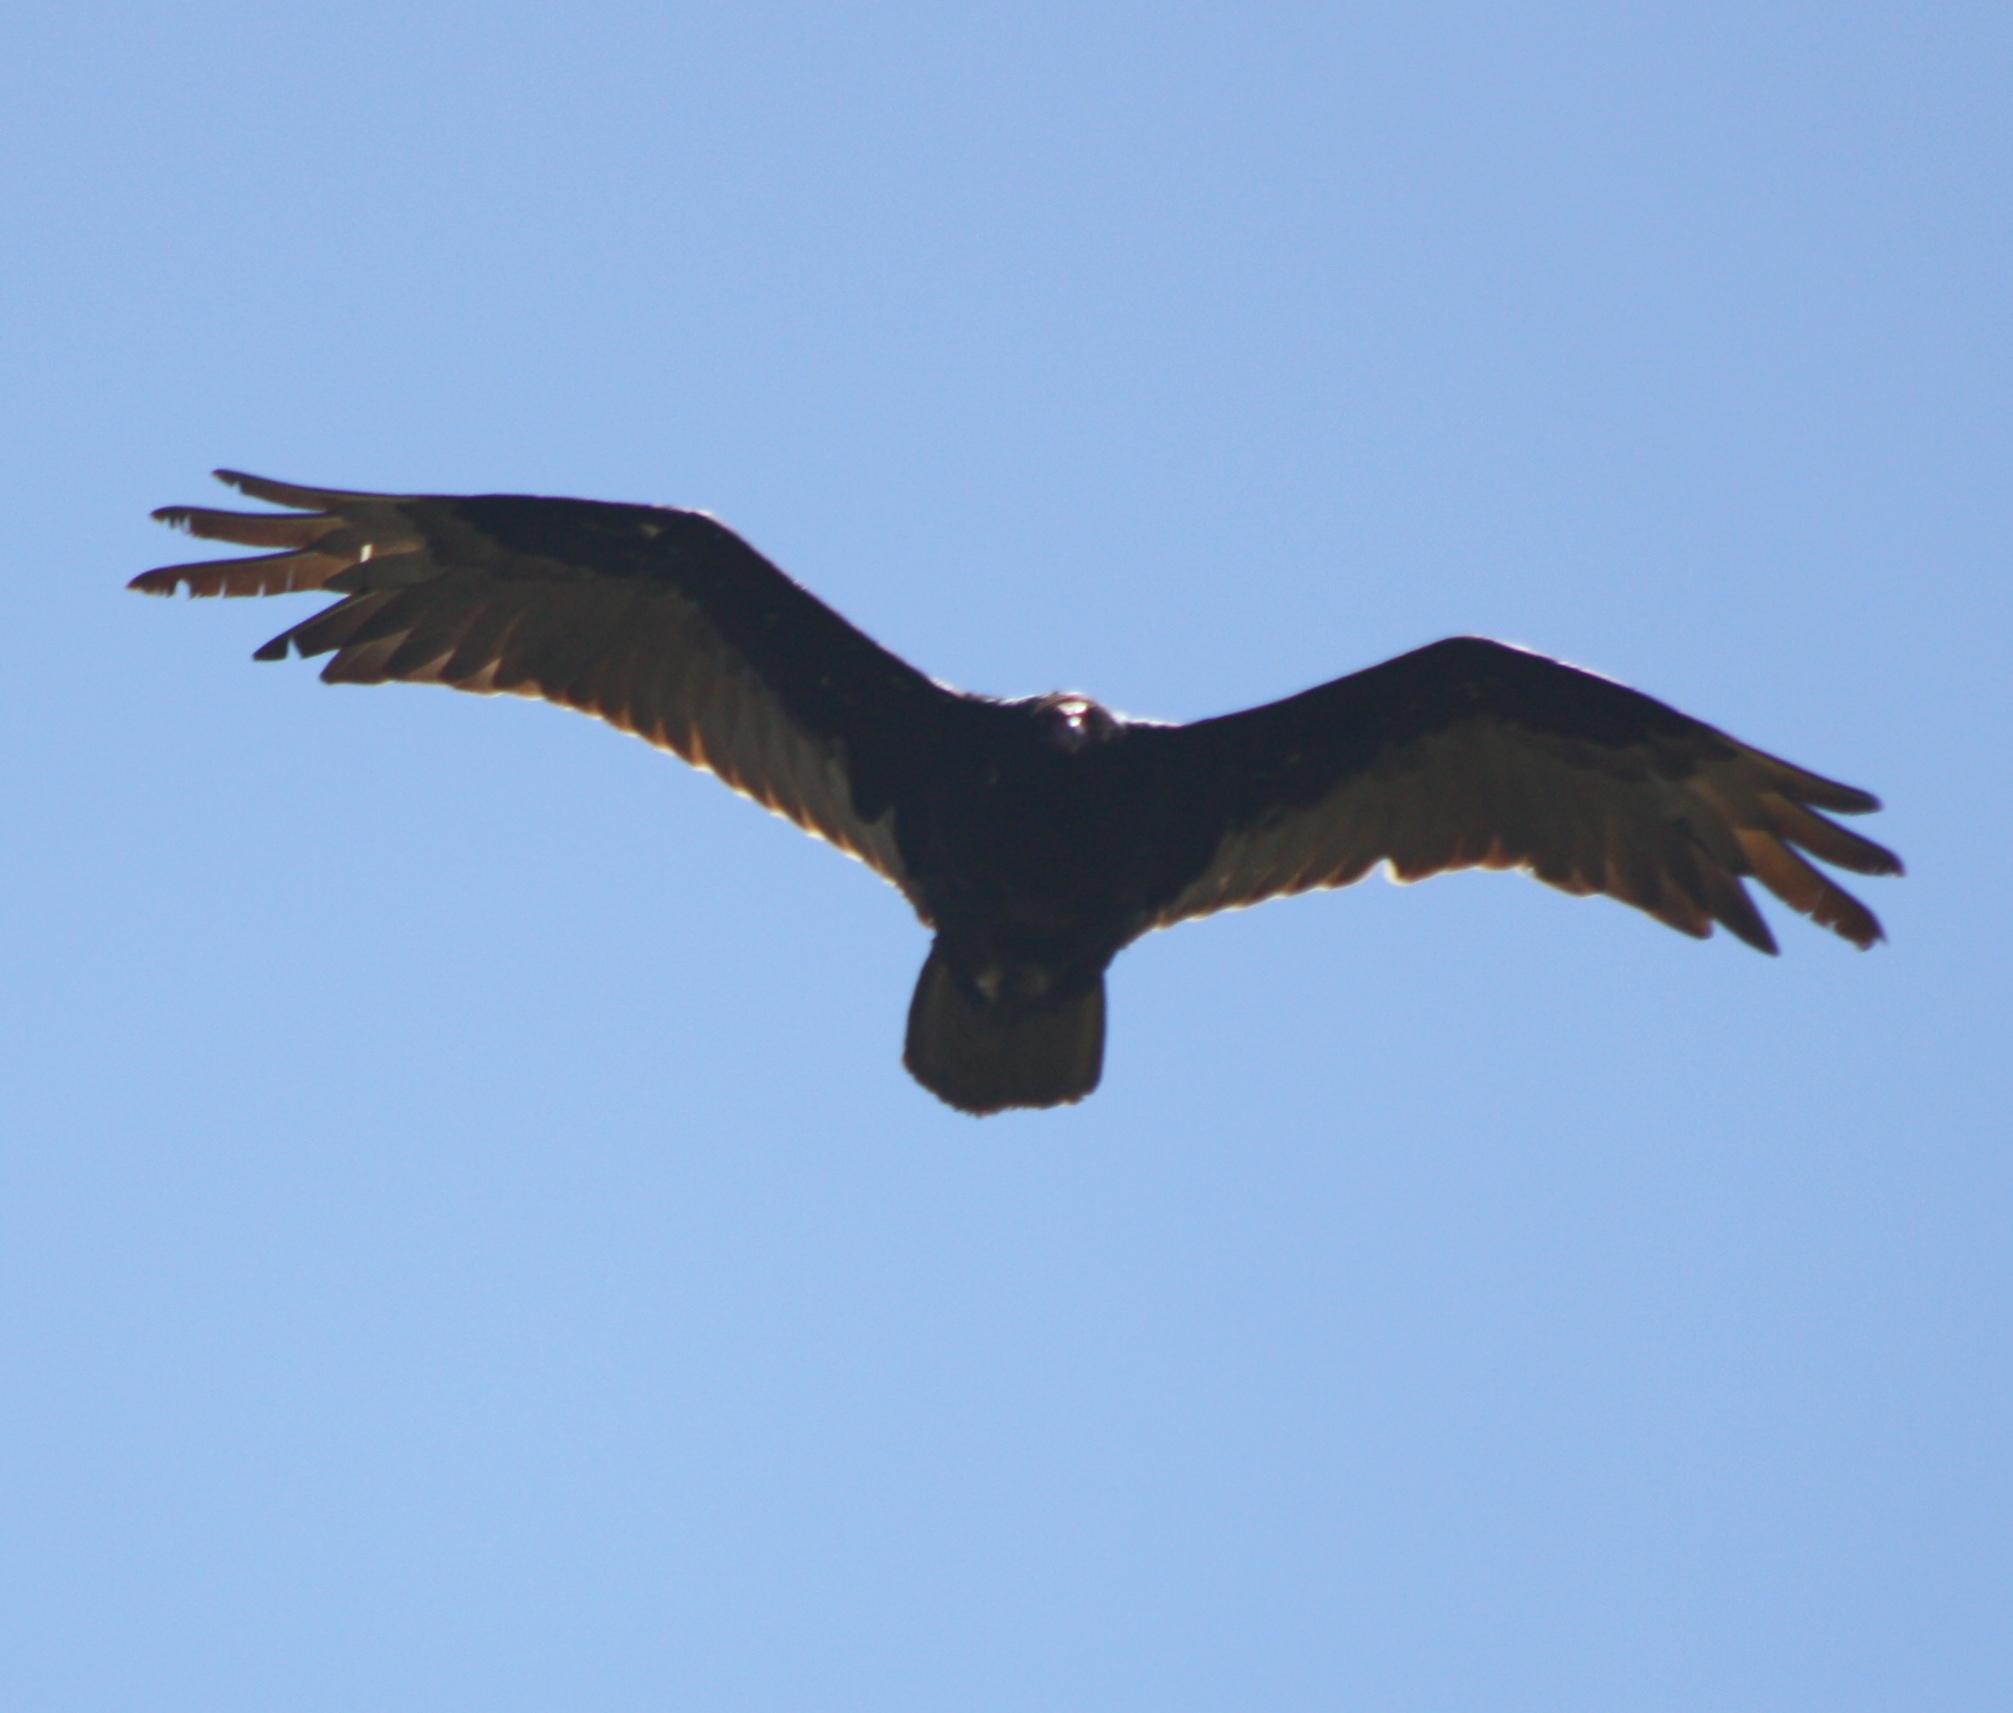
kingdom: Animalia
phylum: Chordata
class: Aves
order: Accipitriformes
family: Cathartidae
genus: Cathartes
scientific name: Cathartes aura
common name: Turkey vulture
